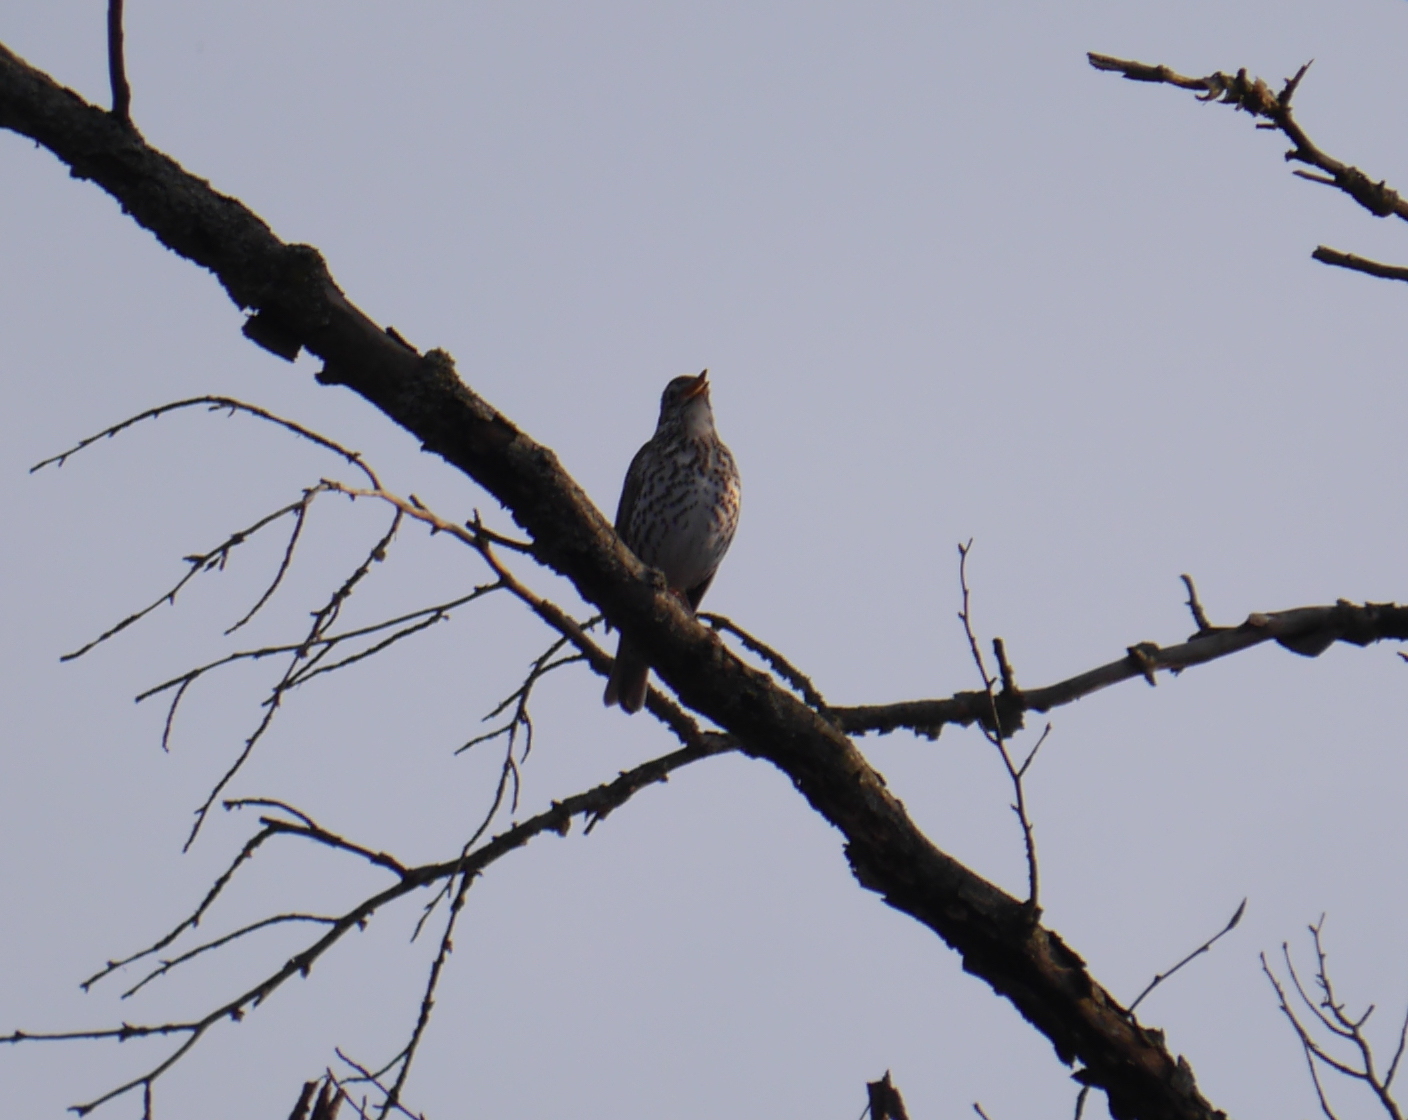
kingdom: Animalia
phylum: Chordata
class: Aves
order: Passeriformes
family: Turdidae
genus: Turdus
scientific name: Turdus philomelos
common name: Song thrush
